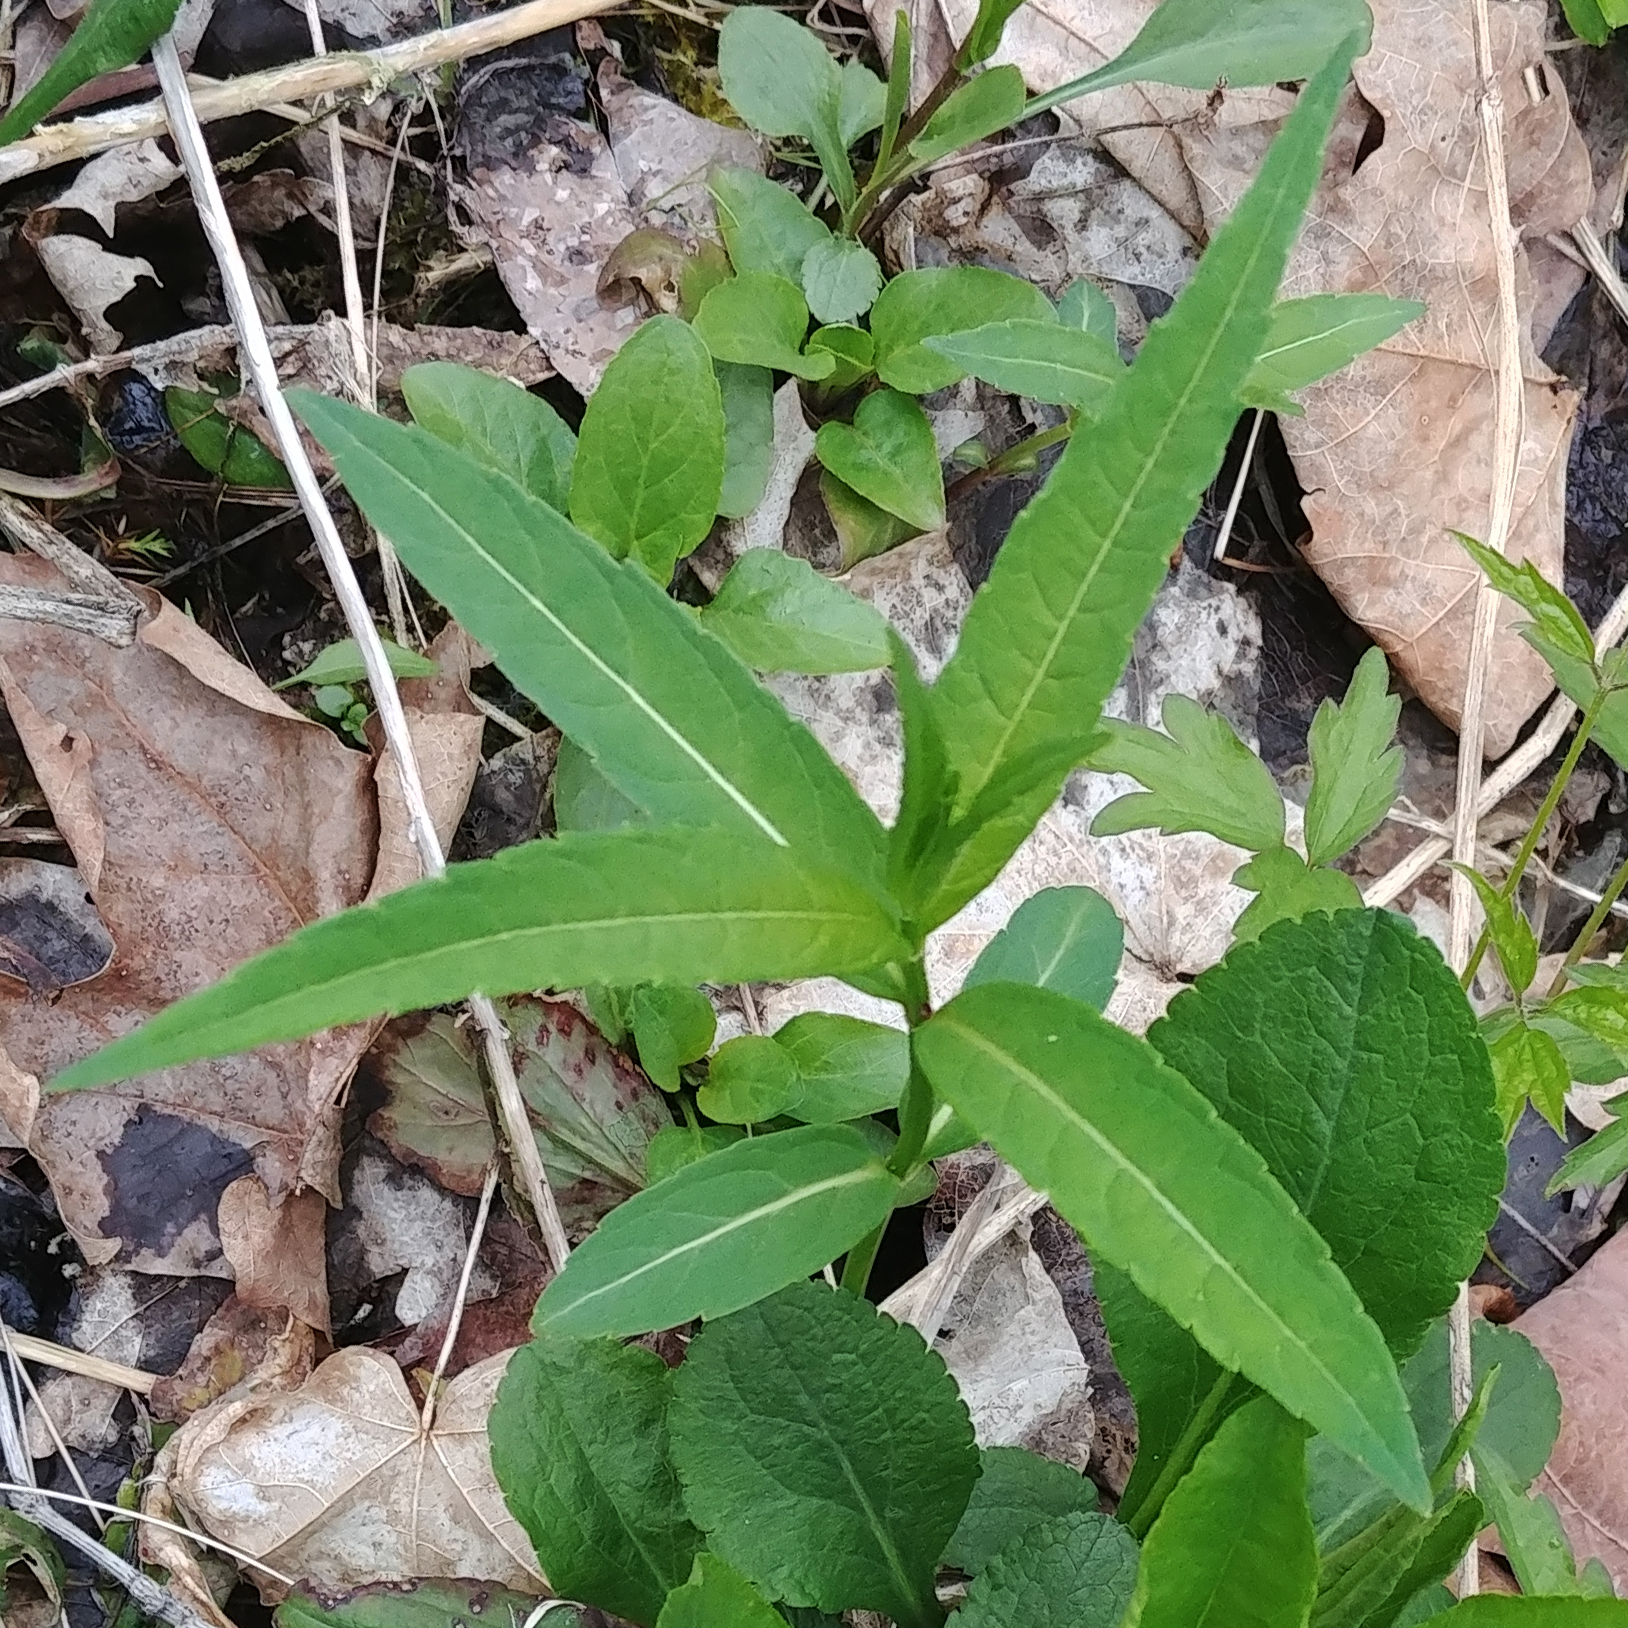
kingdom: Plantae
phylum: Tracheophyta
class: Magnoliopsida
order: Lamiales
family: Plantaginaceae
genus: Chelone
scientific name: Chelone glabra
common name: Snakehead
